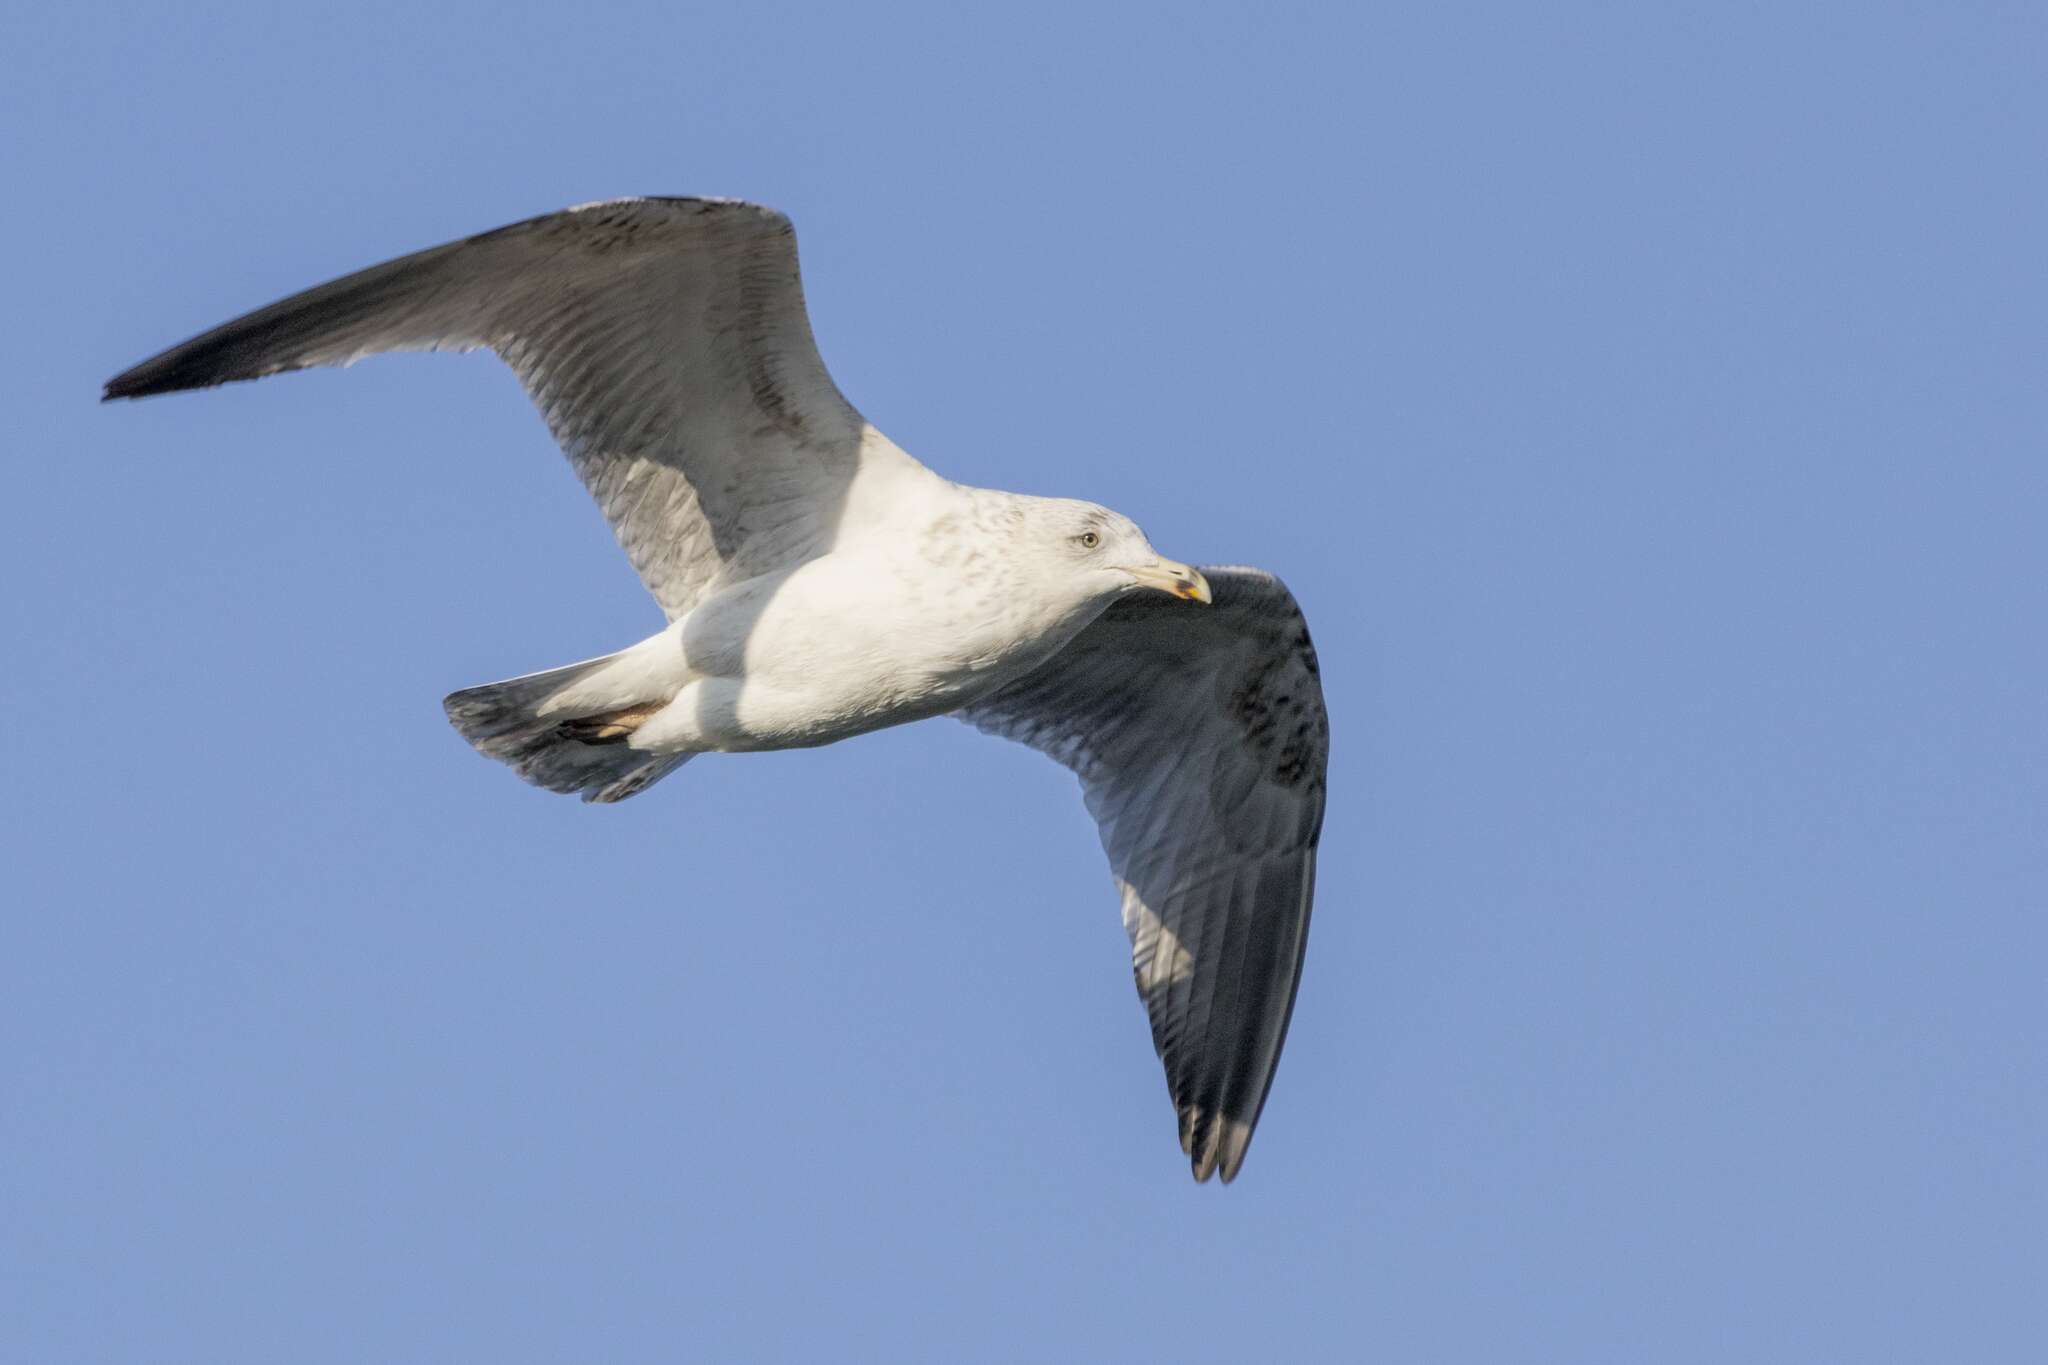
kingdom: Animalia
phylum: Chordata
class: Aves
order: Charadriiformes
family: Laridae
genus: Larus
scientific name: Larus argentatus
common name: Herring gull
